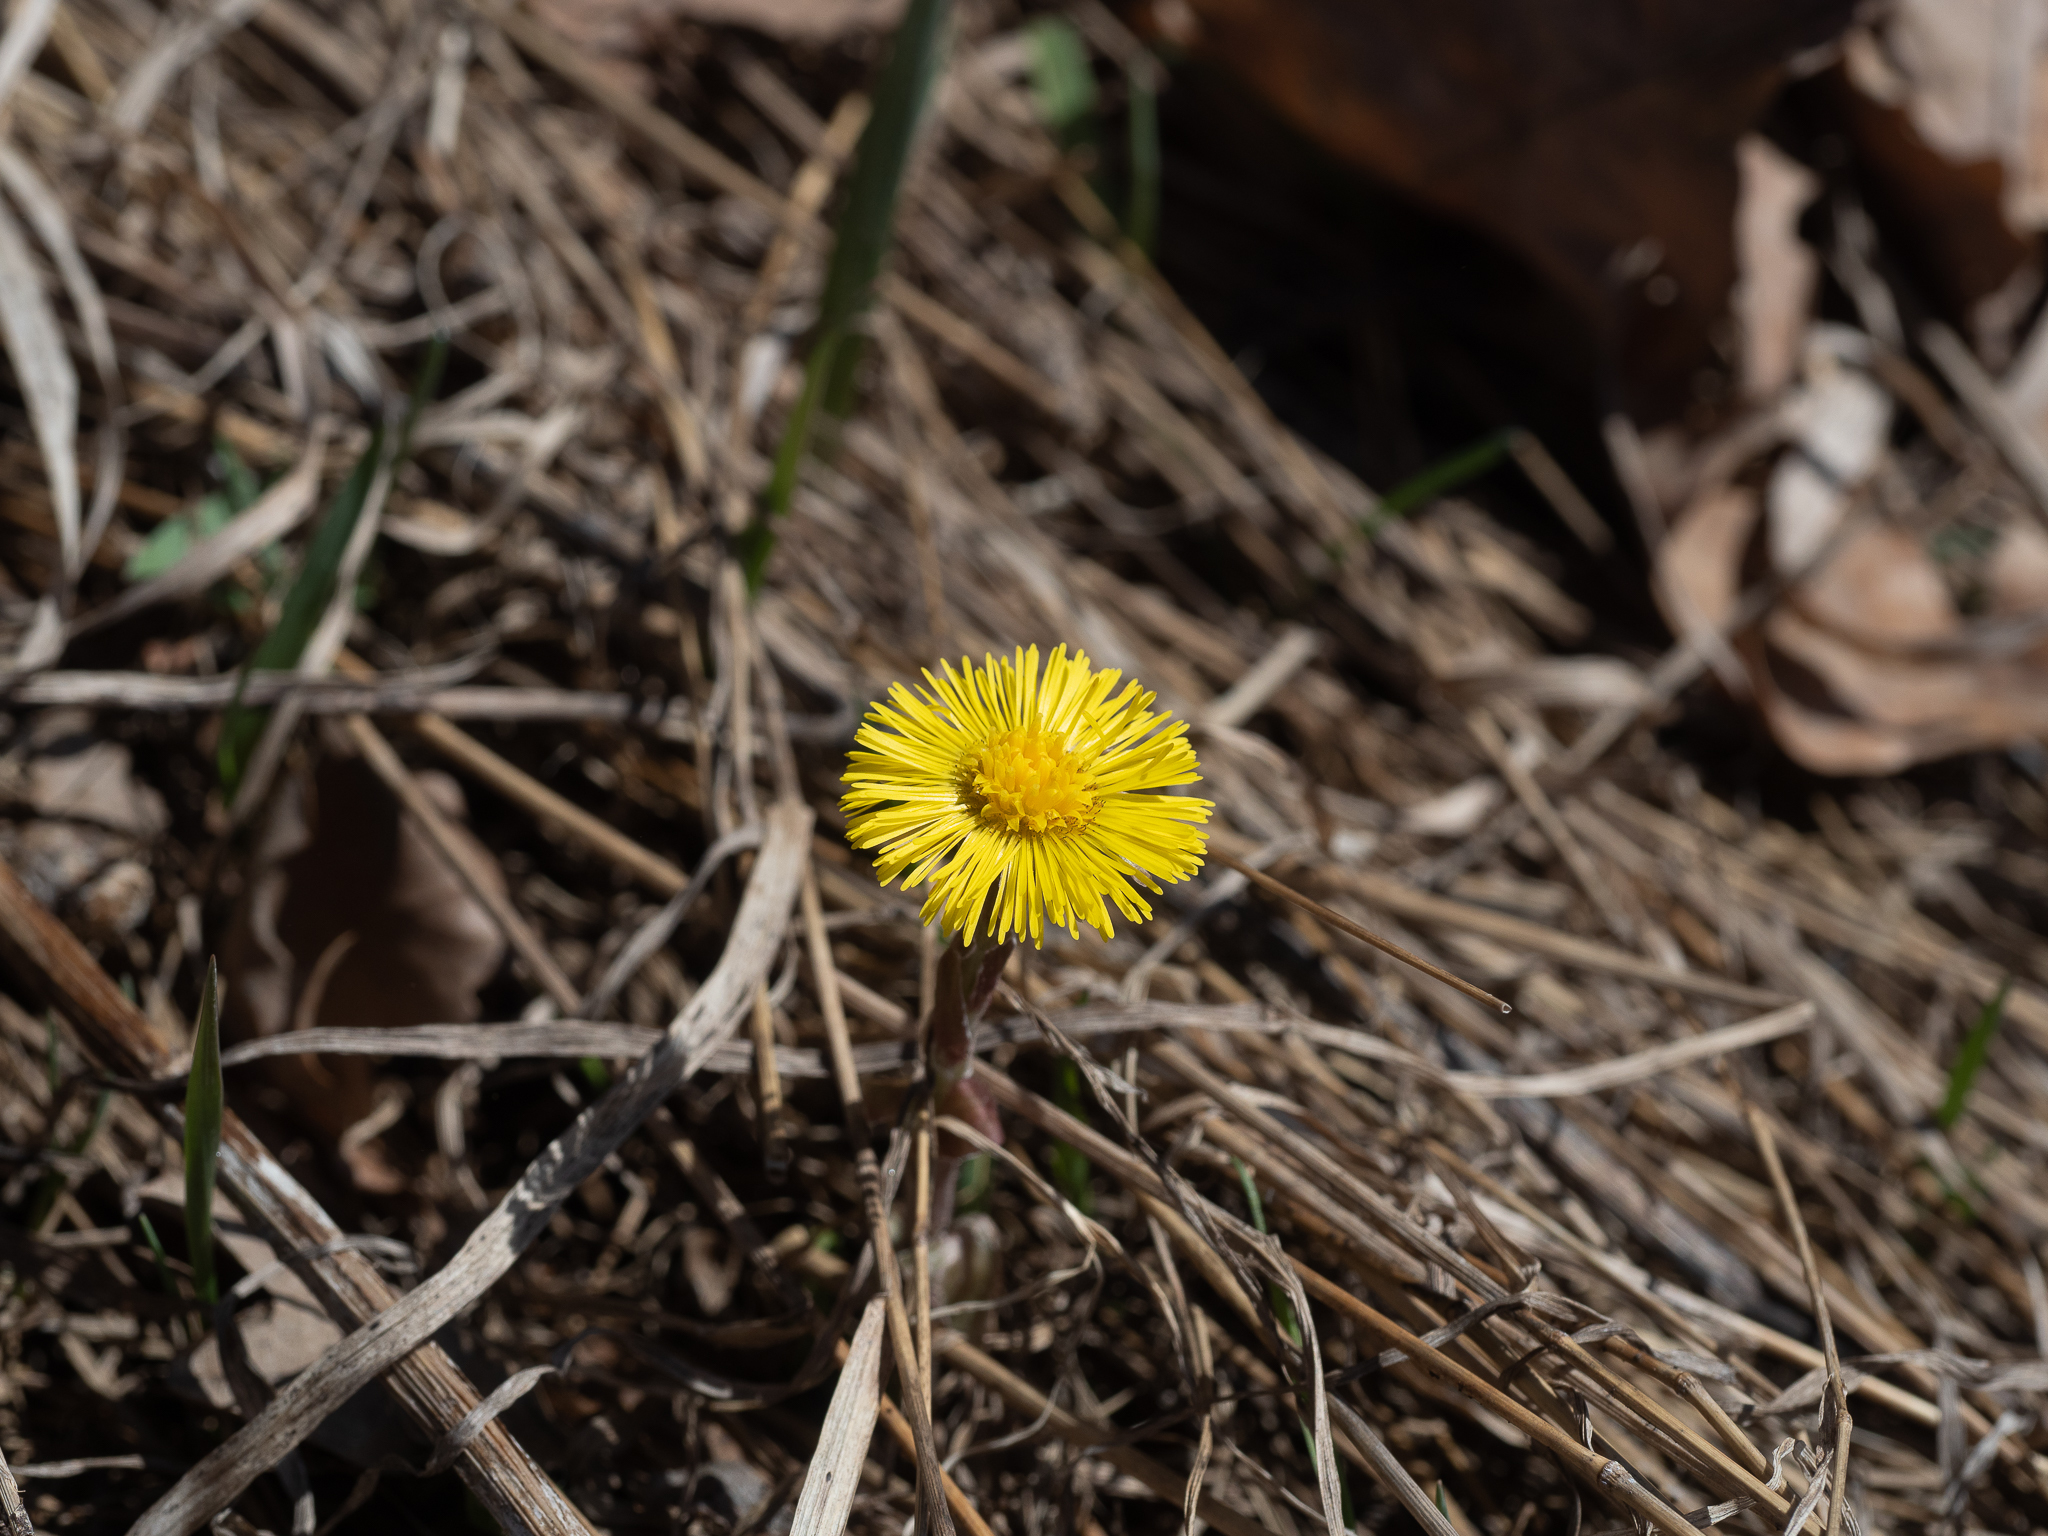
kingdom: Plantae
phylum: Tracheophyta
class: Magnoliopsida
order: Asterales
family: Asteraceae
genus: Tussilago
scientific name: Tussilago farfara
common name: Coltsfoot
